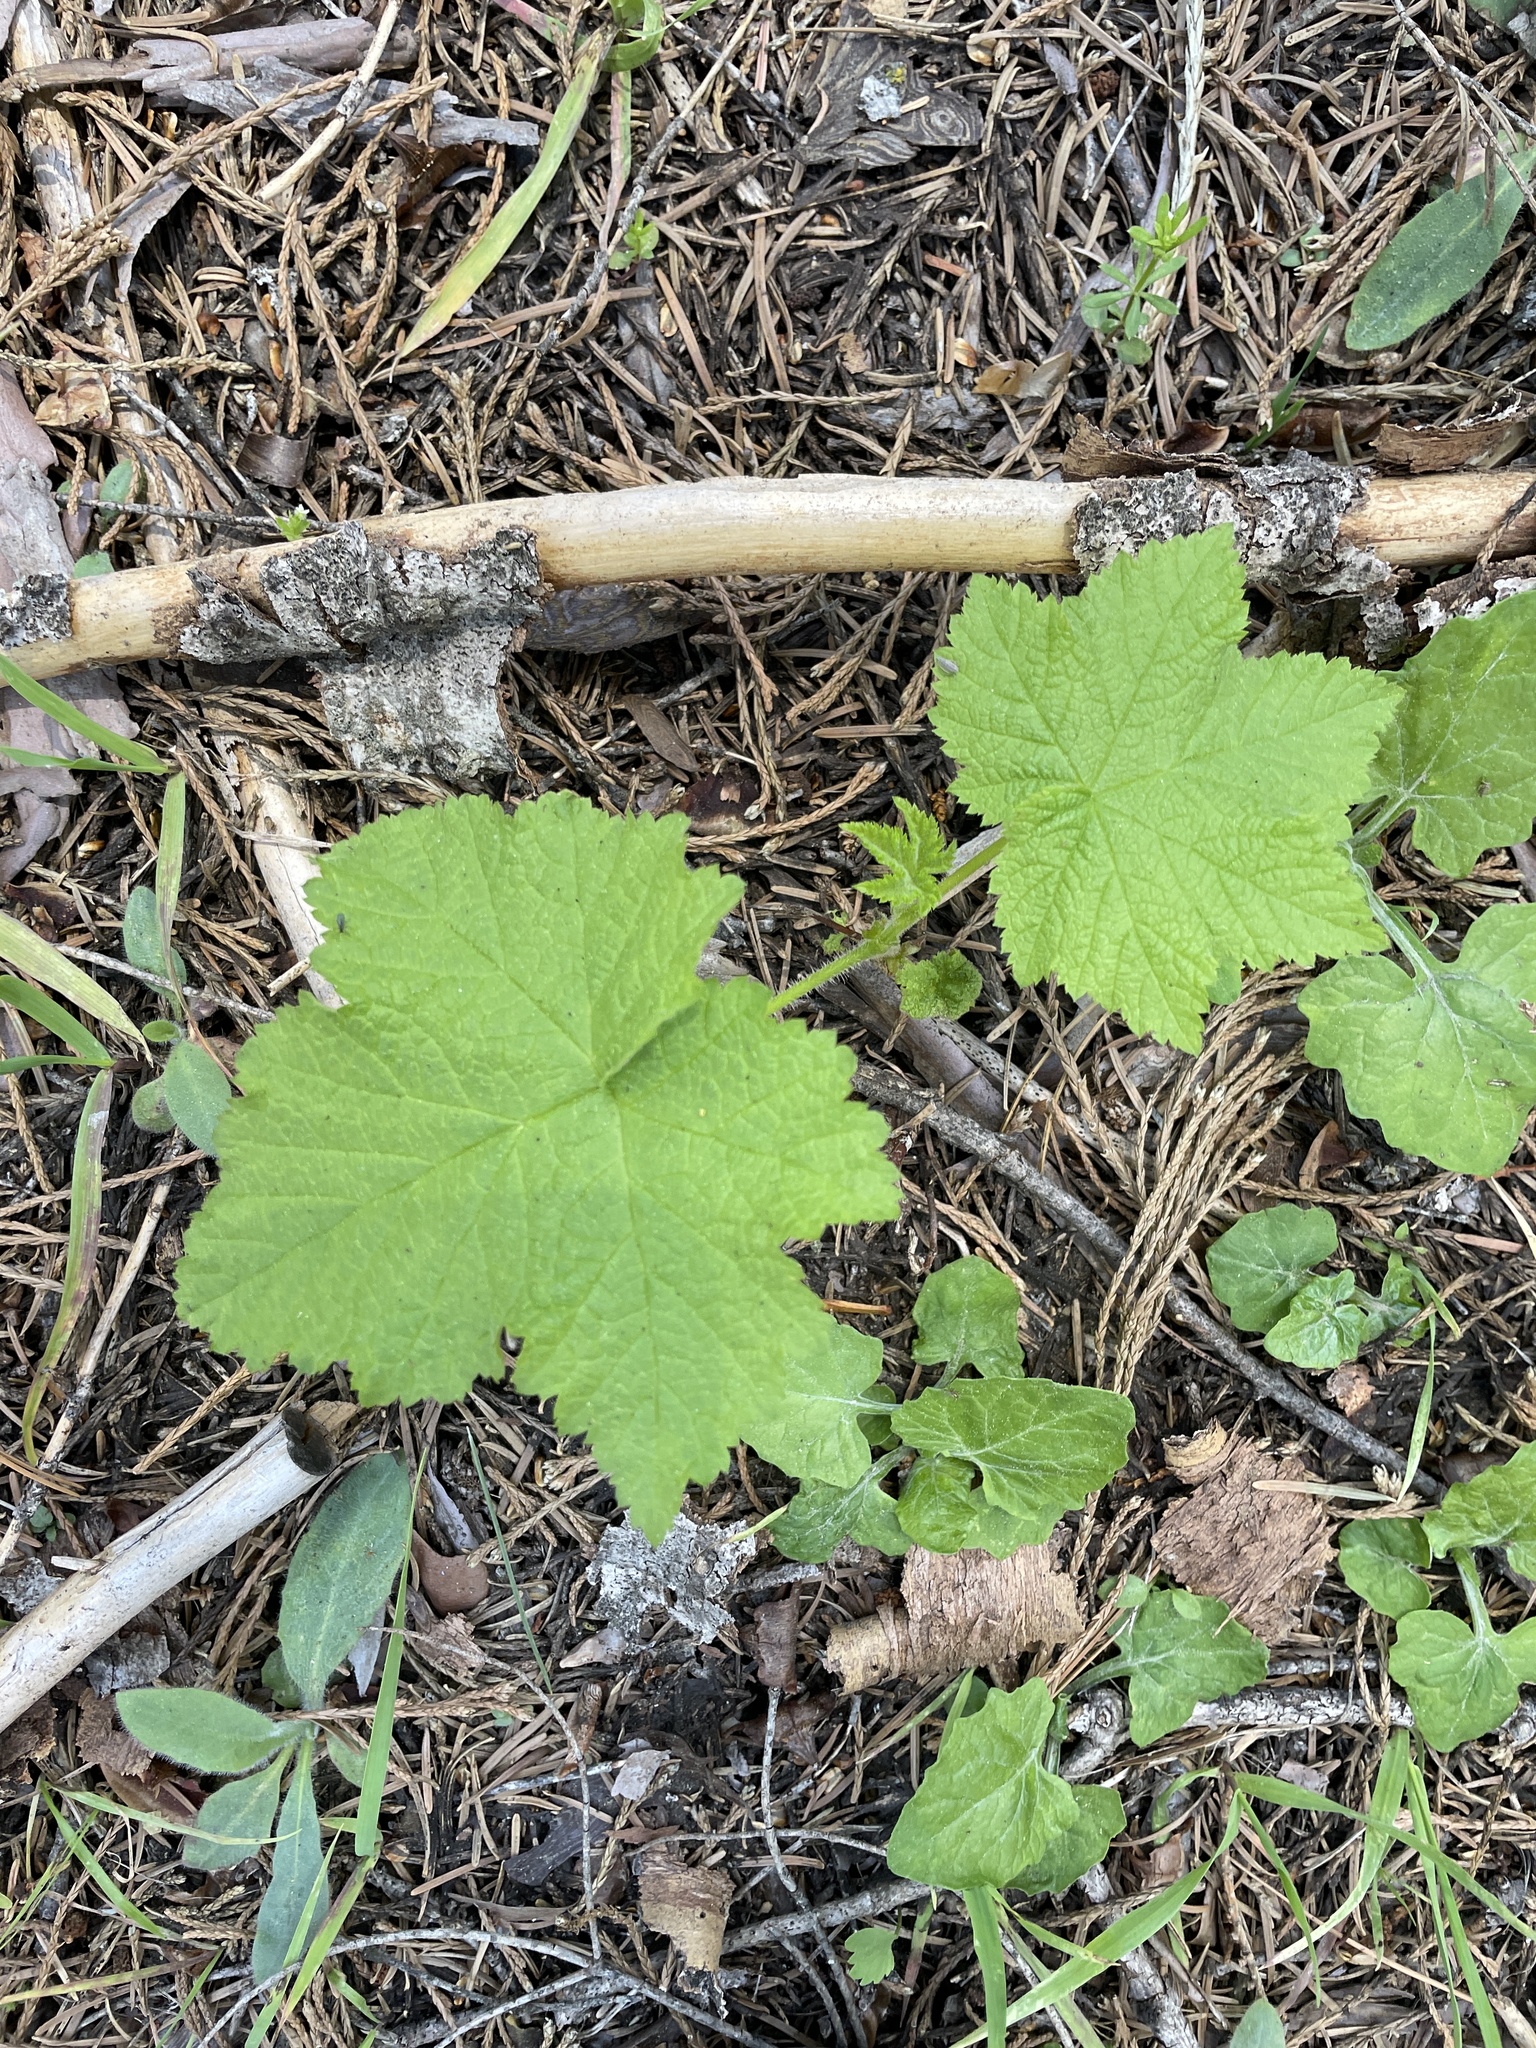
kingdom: Plantae
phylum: Tracheophyta
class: Magnoliopsida
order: Rosales
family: Rosaceae
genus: Rubus
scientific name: Rubus parviflorus
